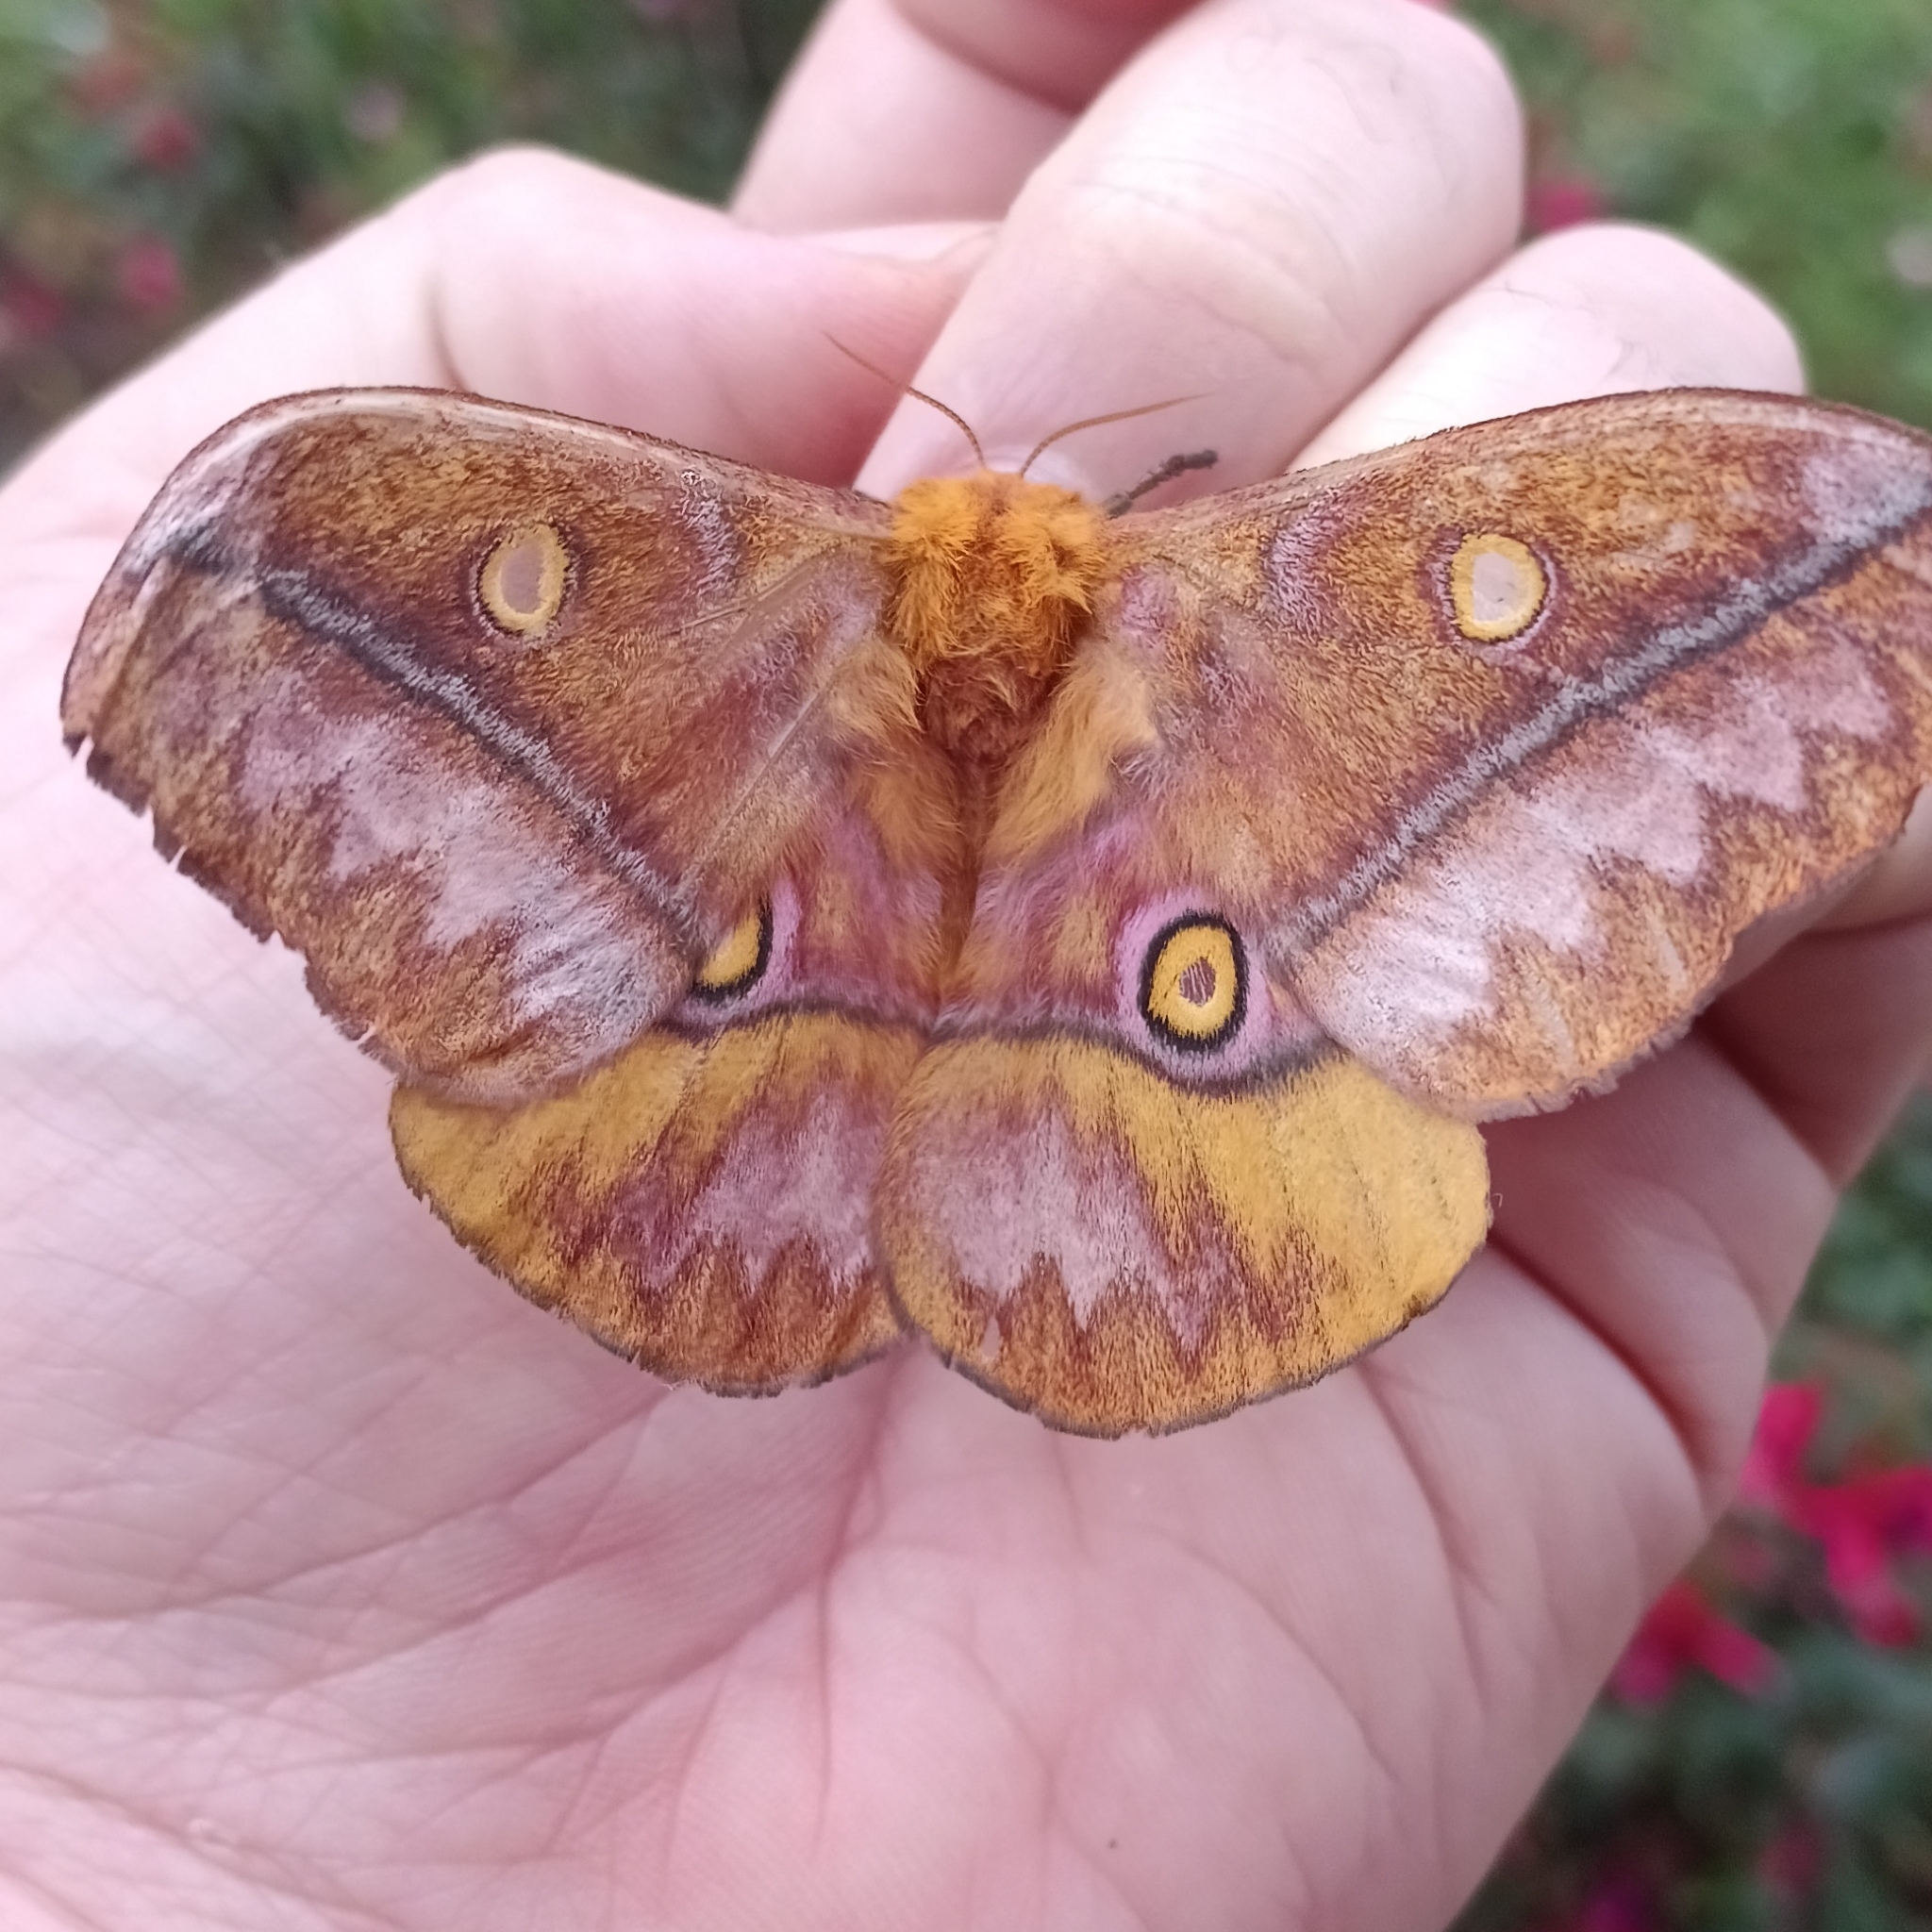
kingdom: Animalia
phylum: Arthropoda
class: Insecta
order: Lepidoptera
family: Saturniidae
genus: Nudaurelia
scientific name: Nudaurelia wahlbergi
